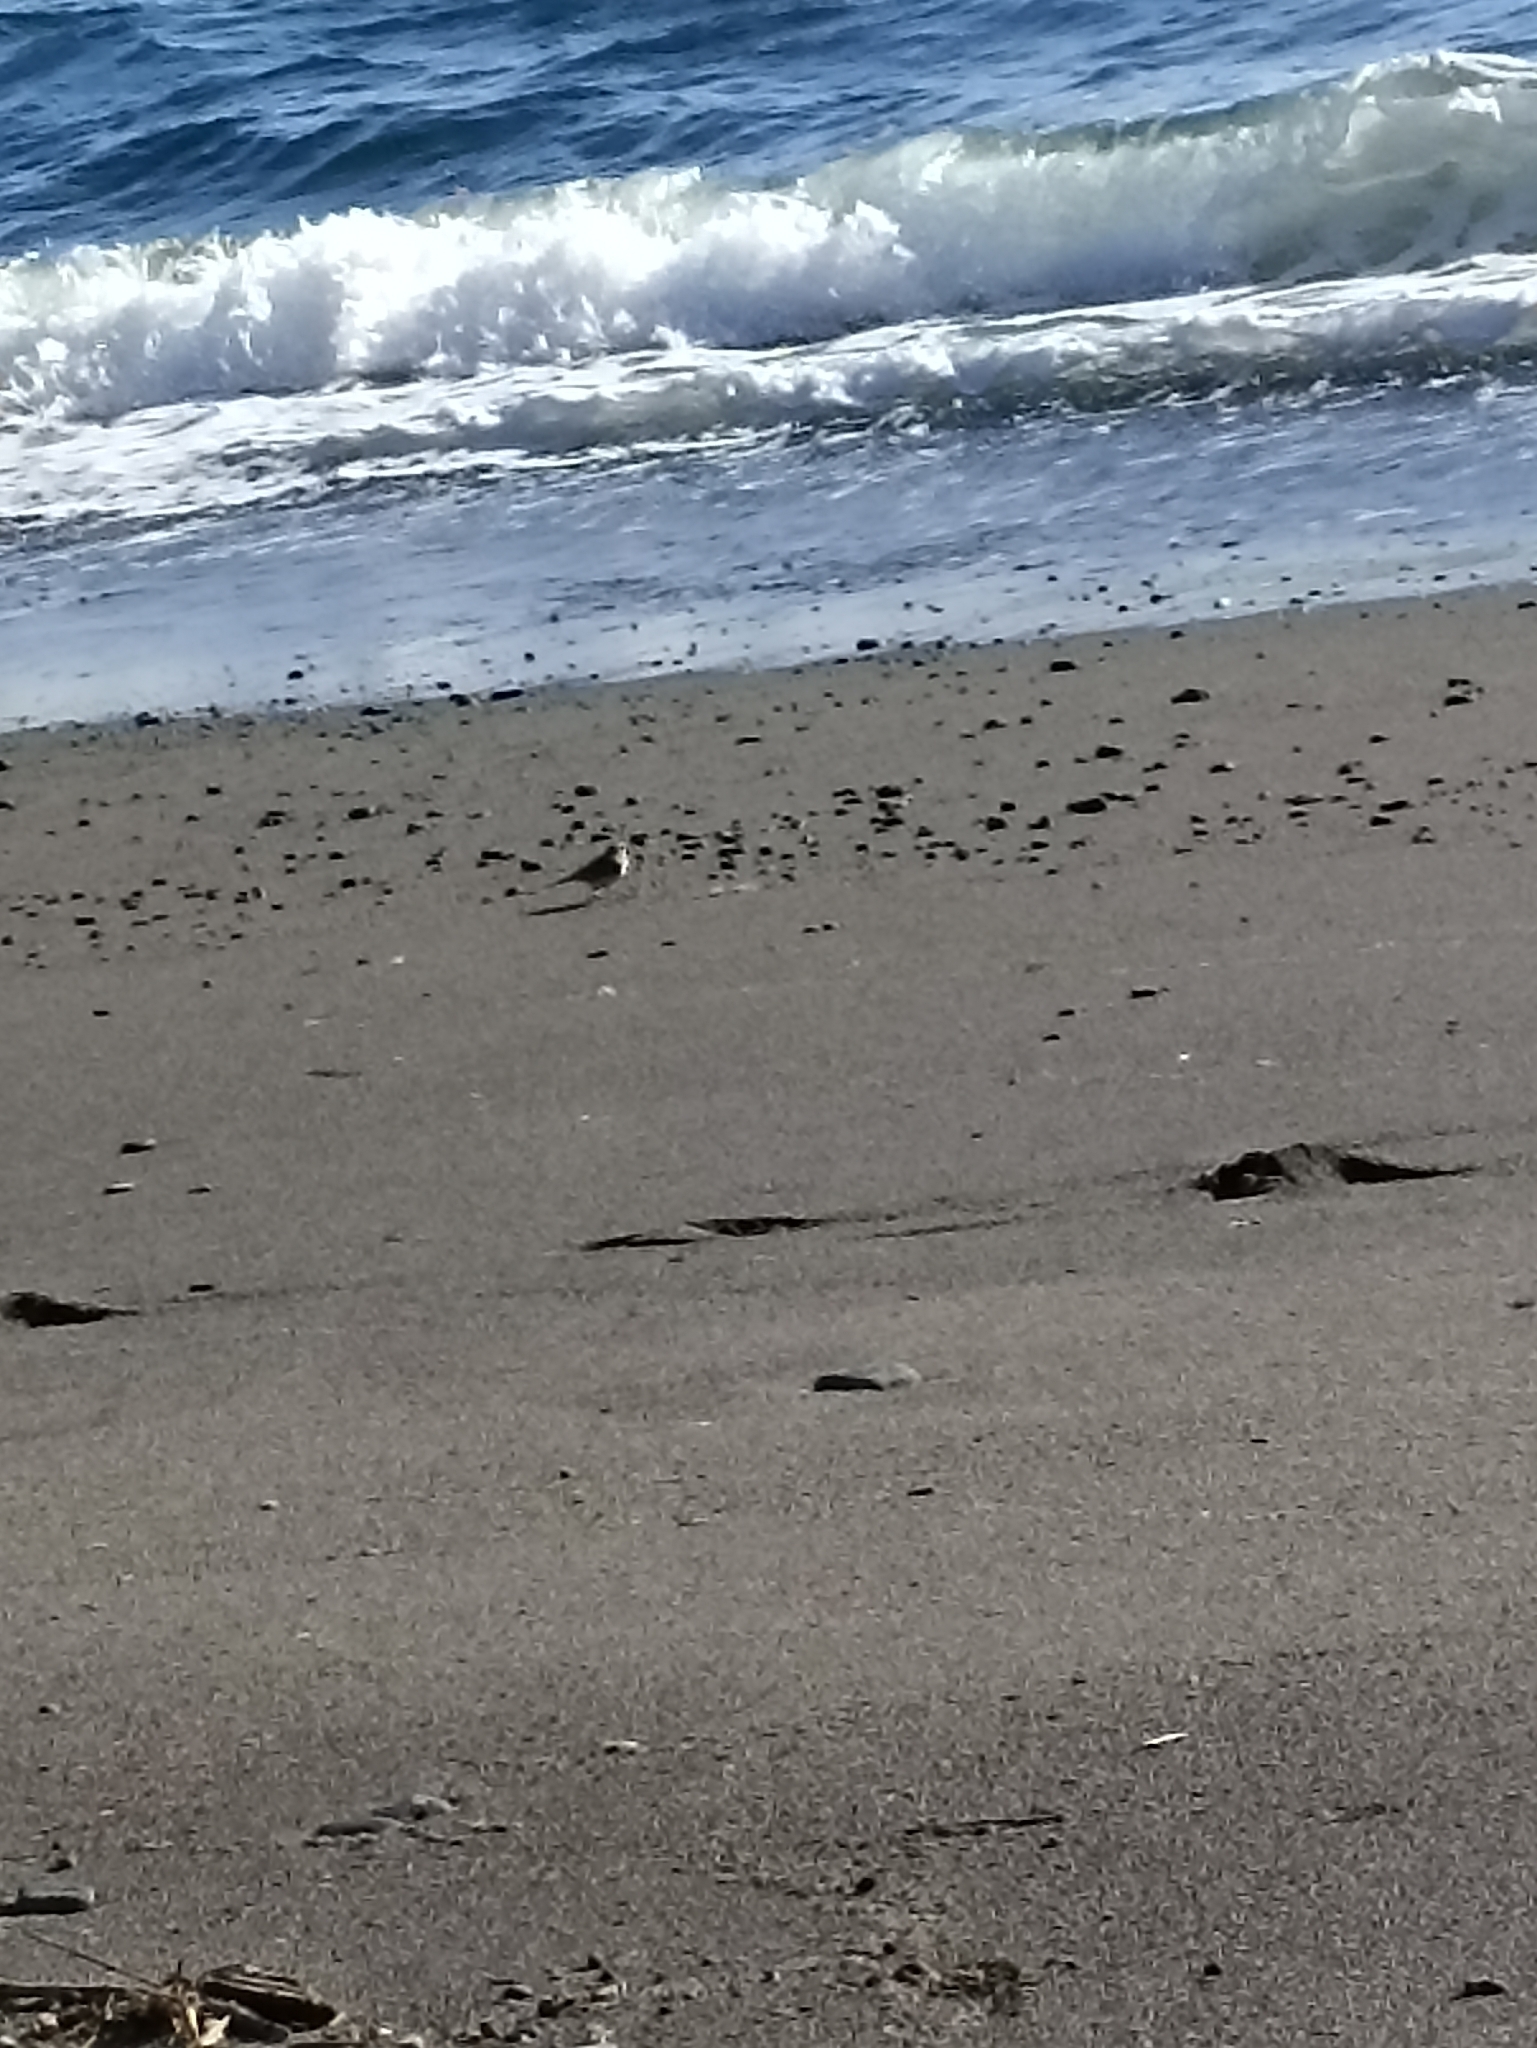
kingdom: Animalia
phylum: Chordata
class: Aves
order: Passeriformes
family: Motacillidae
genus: Anthus
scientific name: Anthus novaeseelandiae
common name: New zealand pipit
